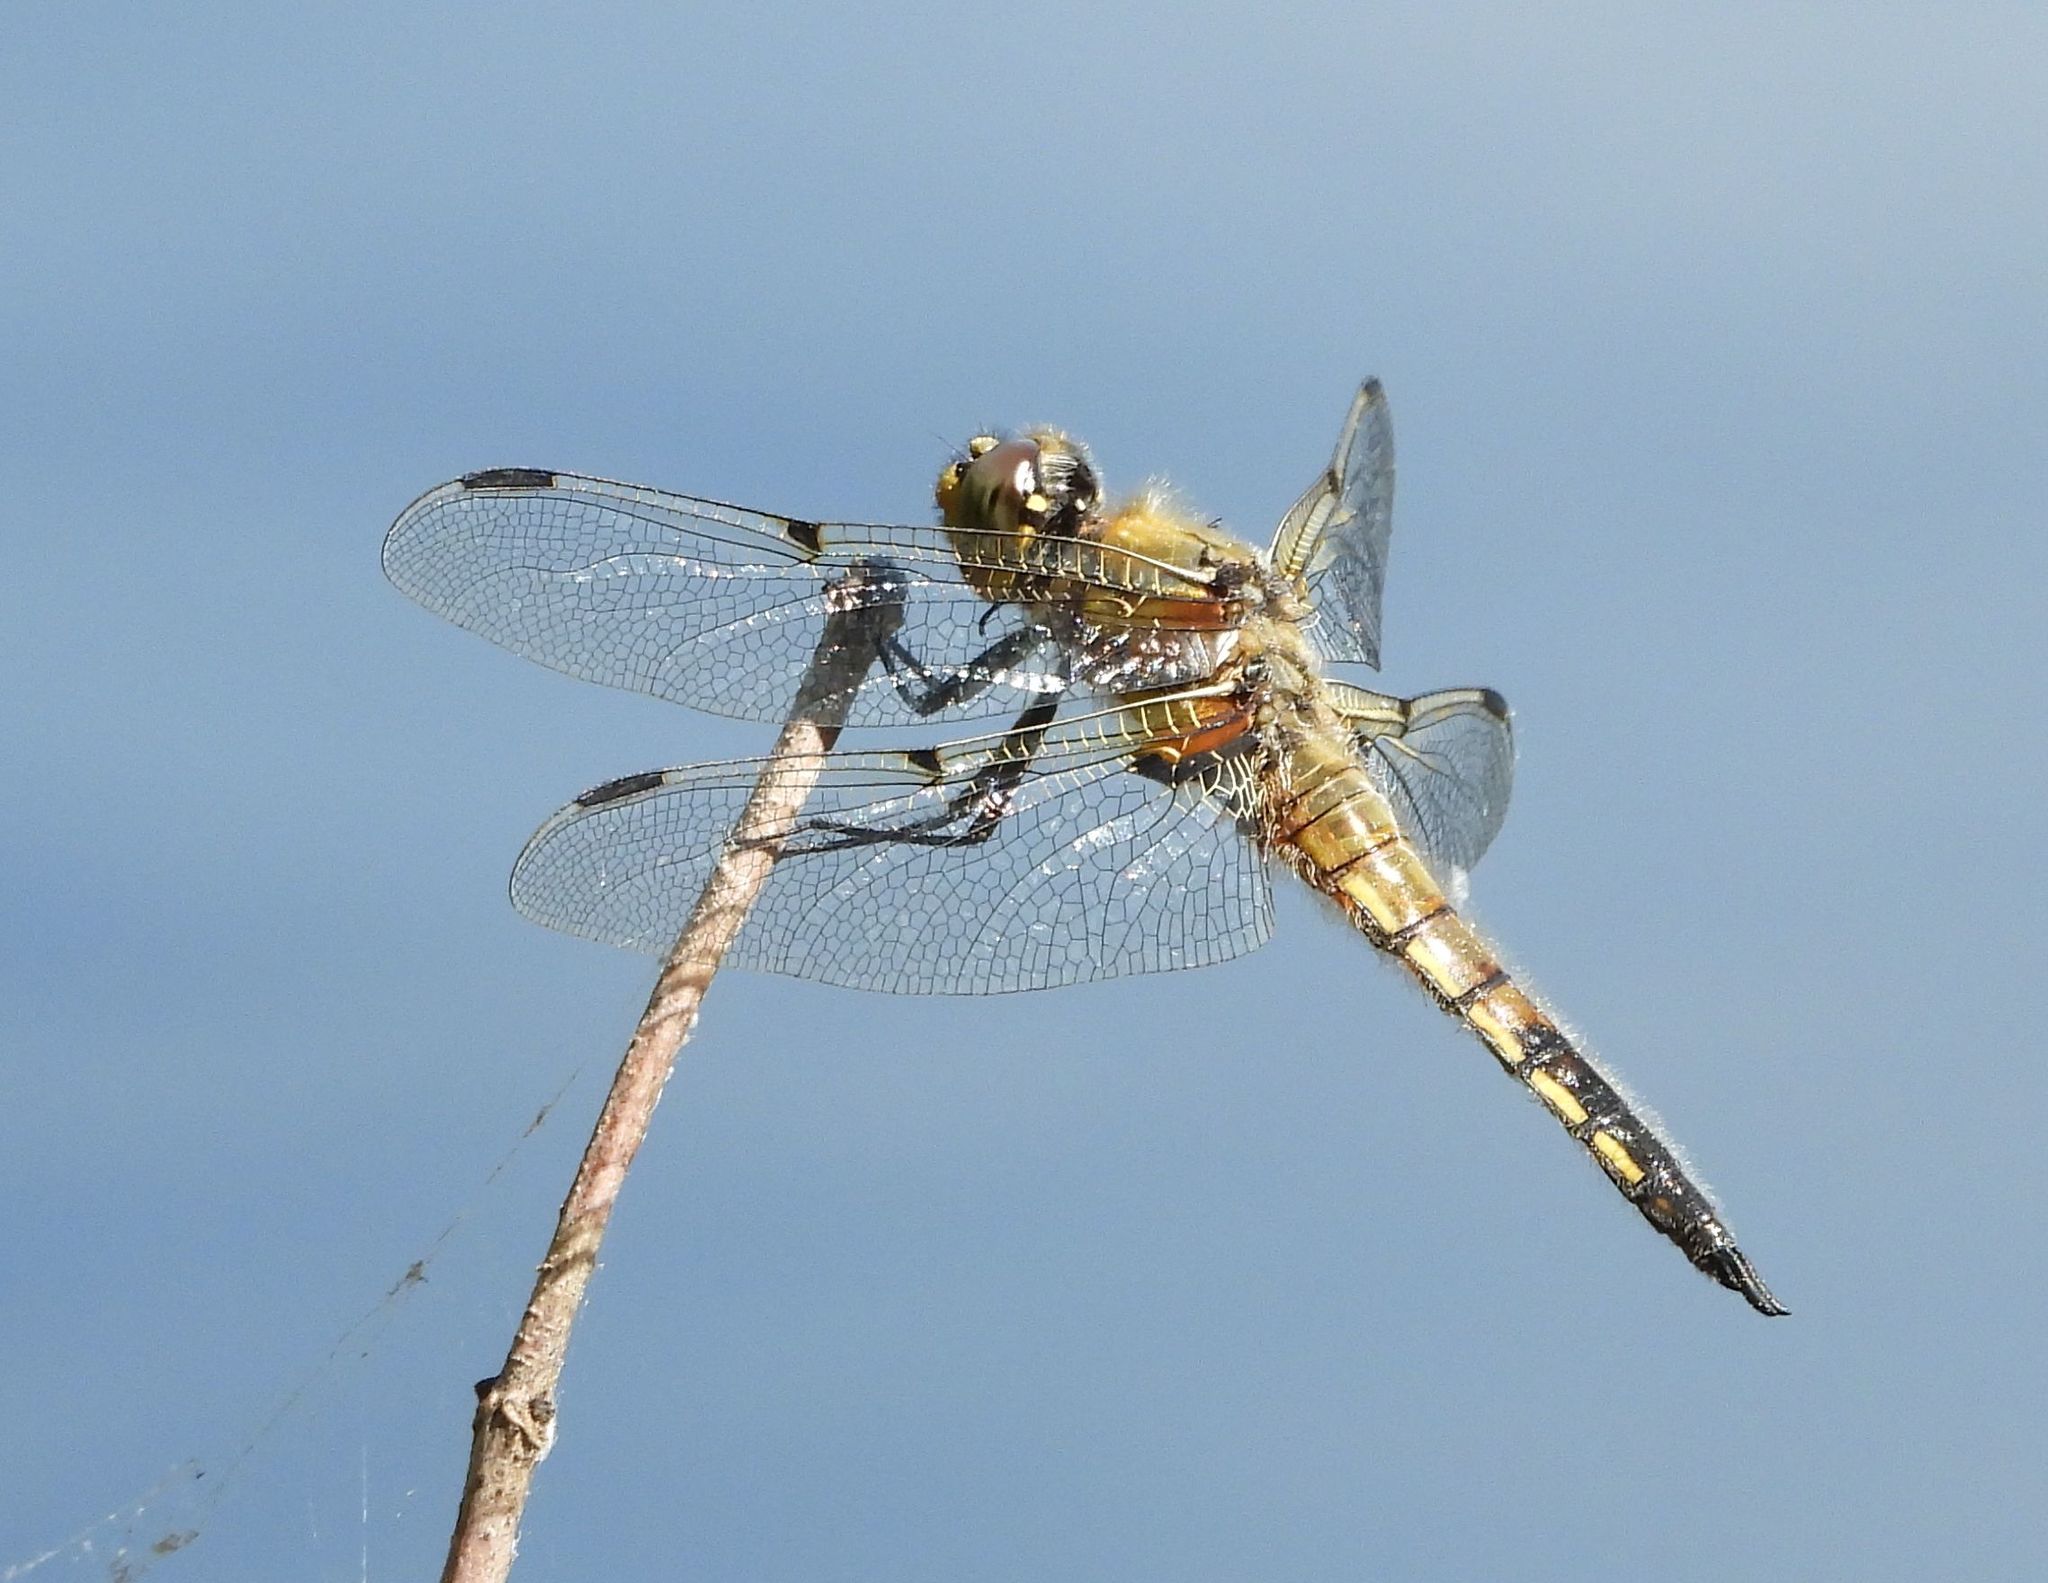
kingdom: Animalia
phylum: Arthropoda
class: Insecta
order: Odonata
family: Libellulidae
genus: Libellula
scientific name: Libellula quadrimaculata
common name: Four-spotted chaser
